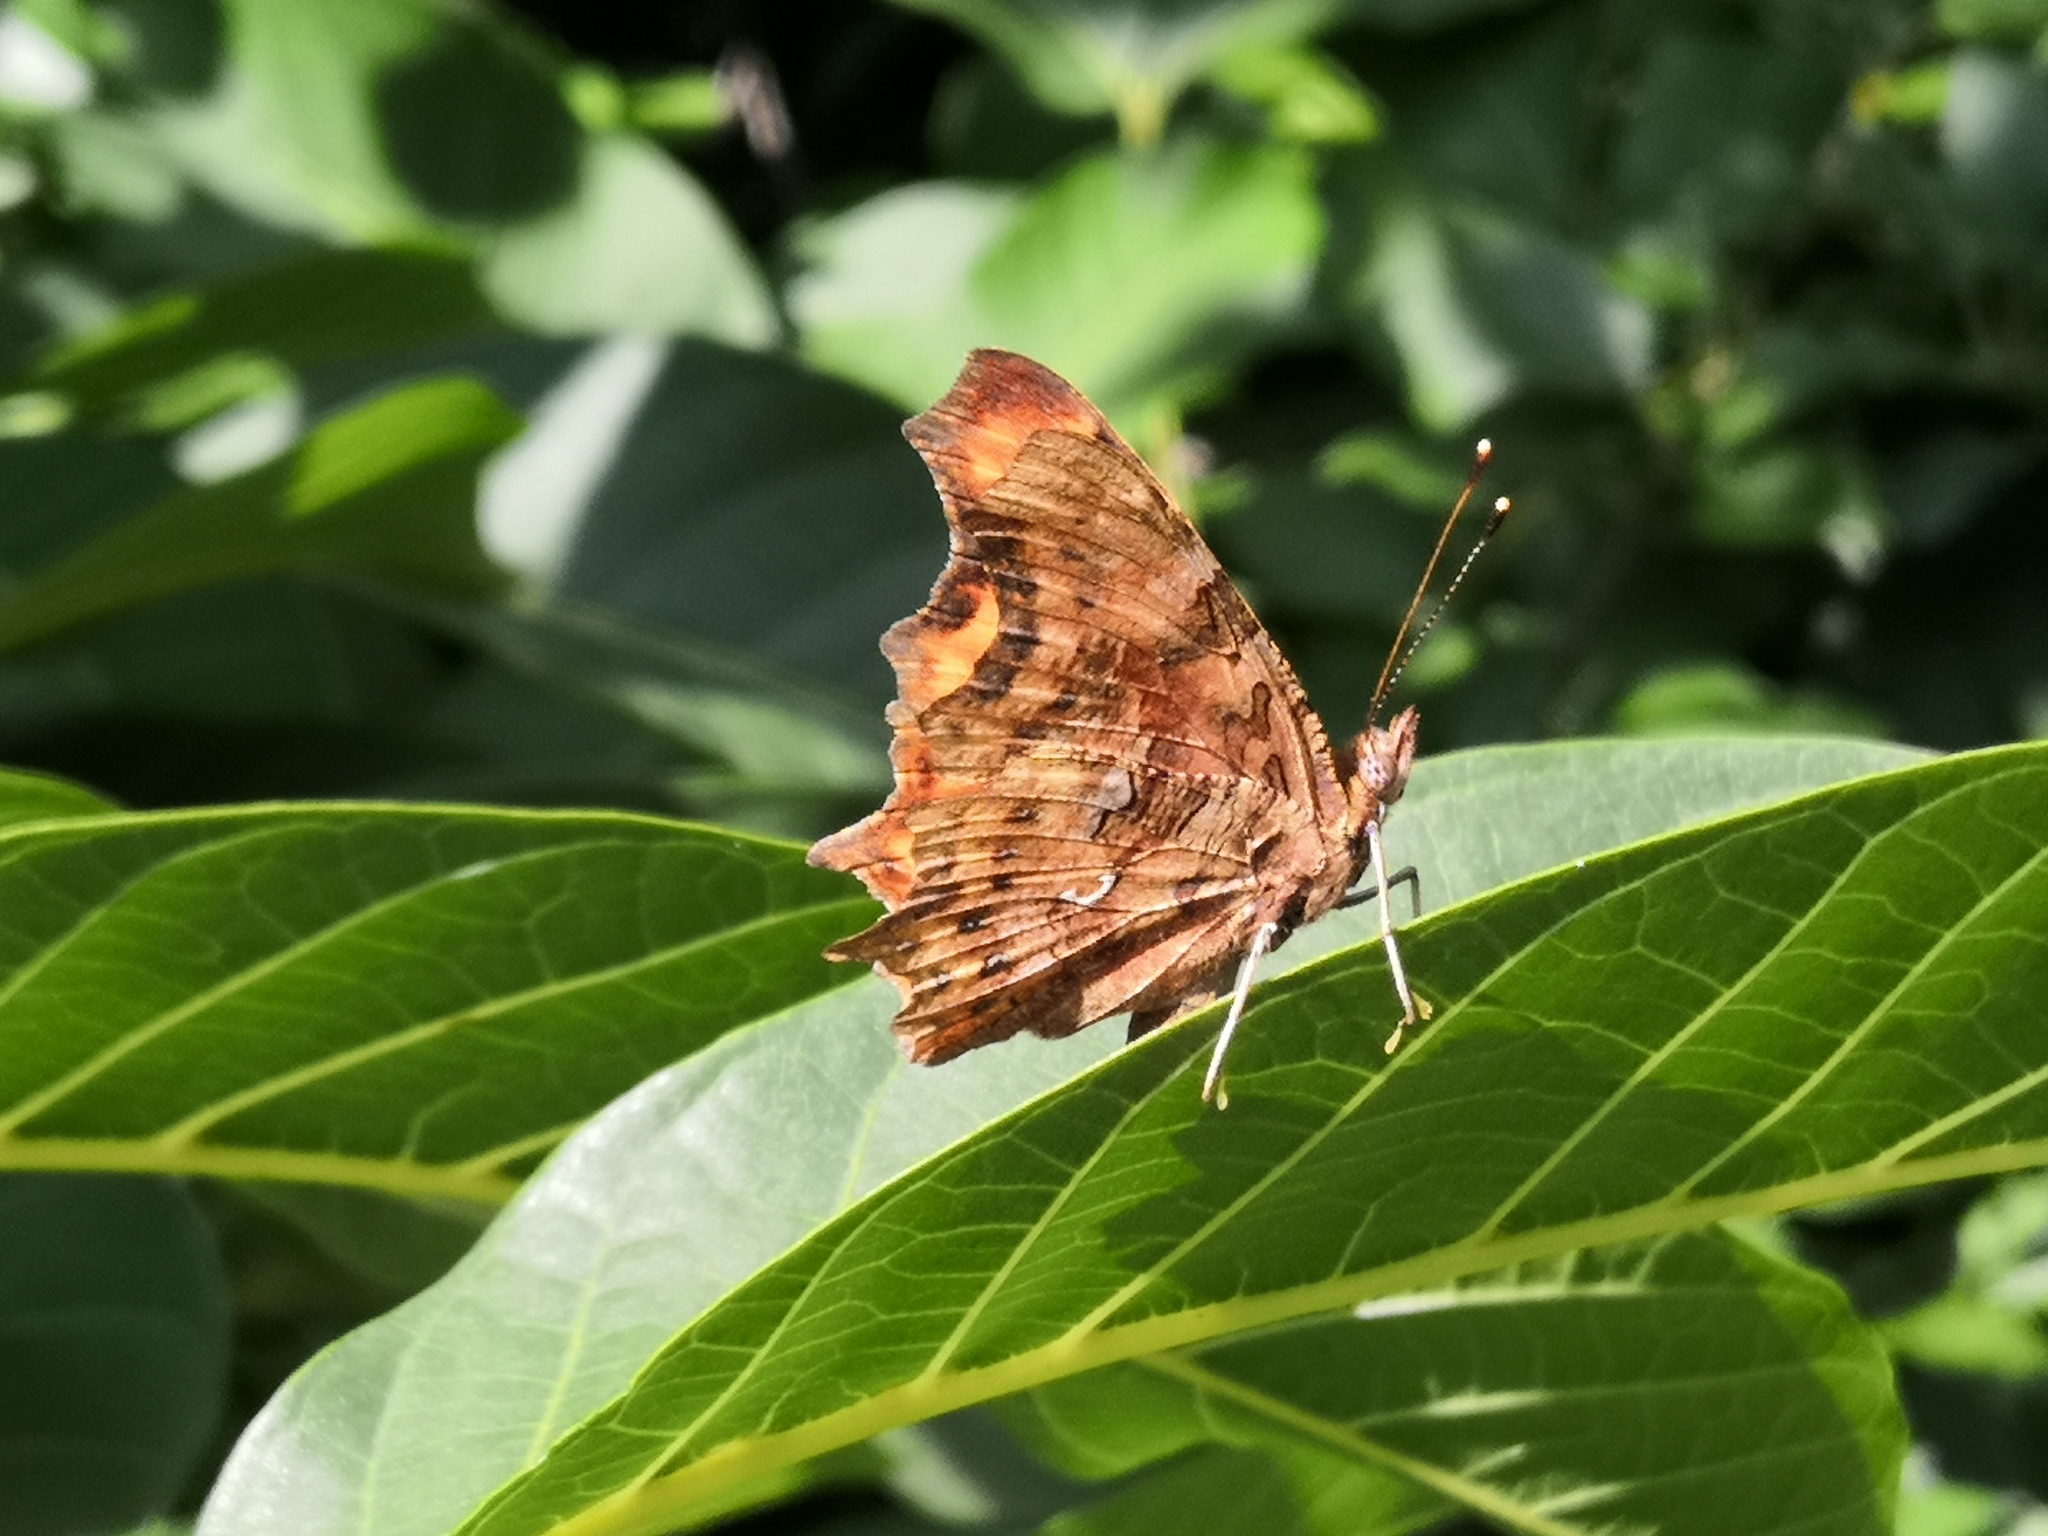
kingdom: Animalia
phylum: Arthropoda
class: Insecta
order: Lepidoptera
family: Nymphalidae
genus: Polygonia
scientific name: Polygonia c-album
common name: Comma
